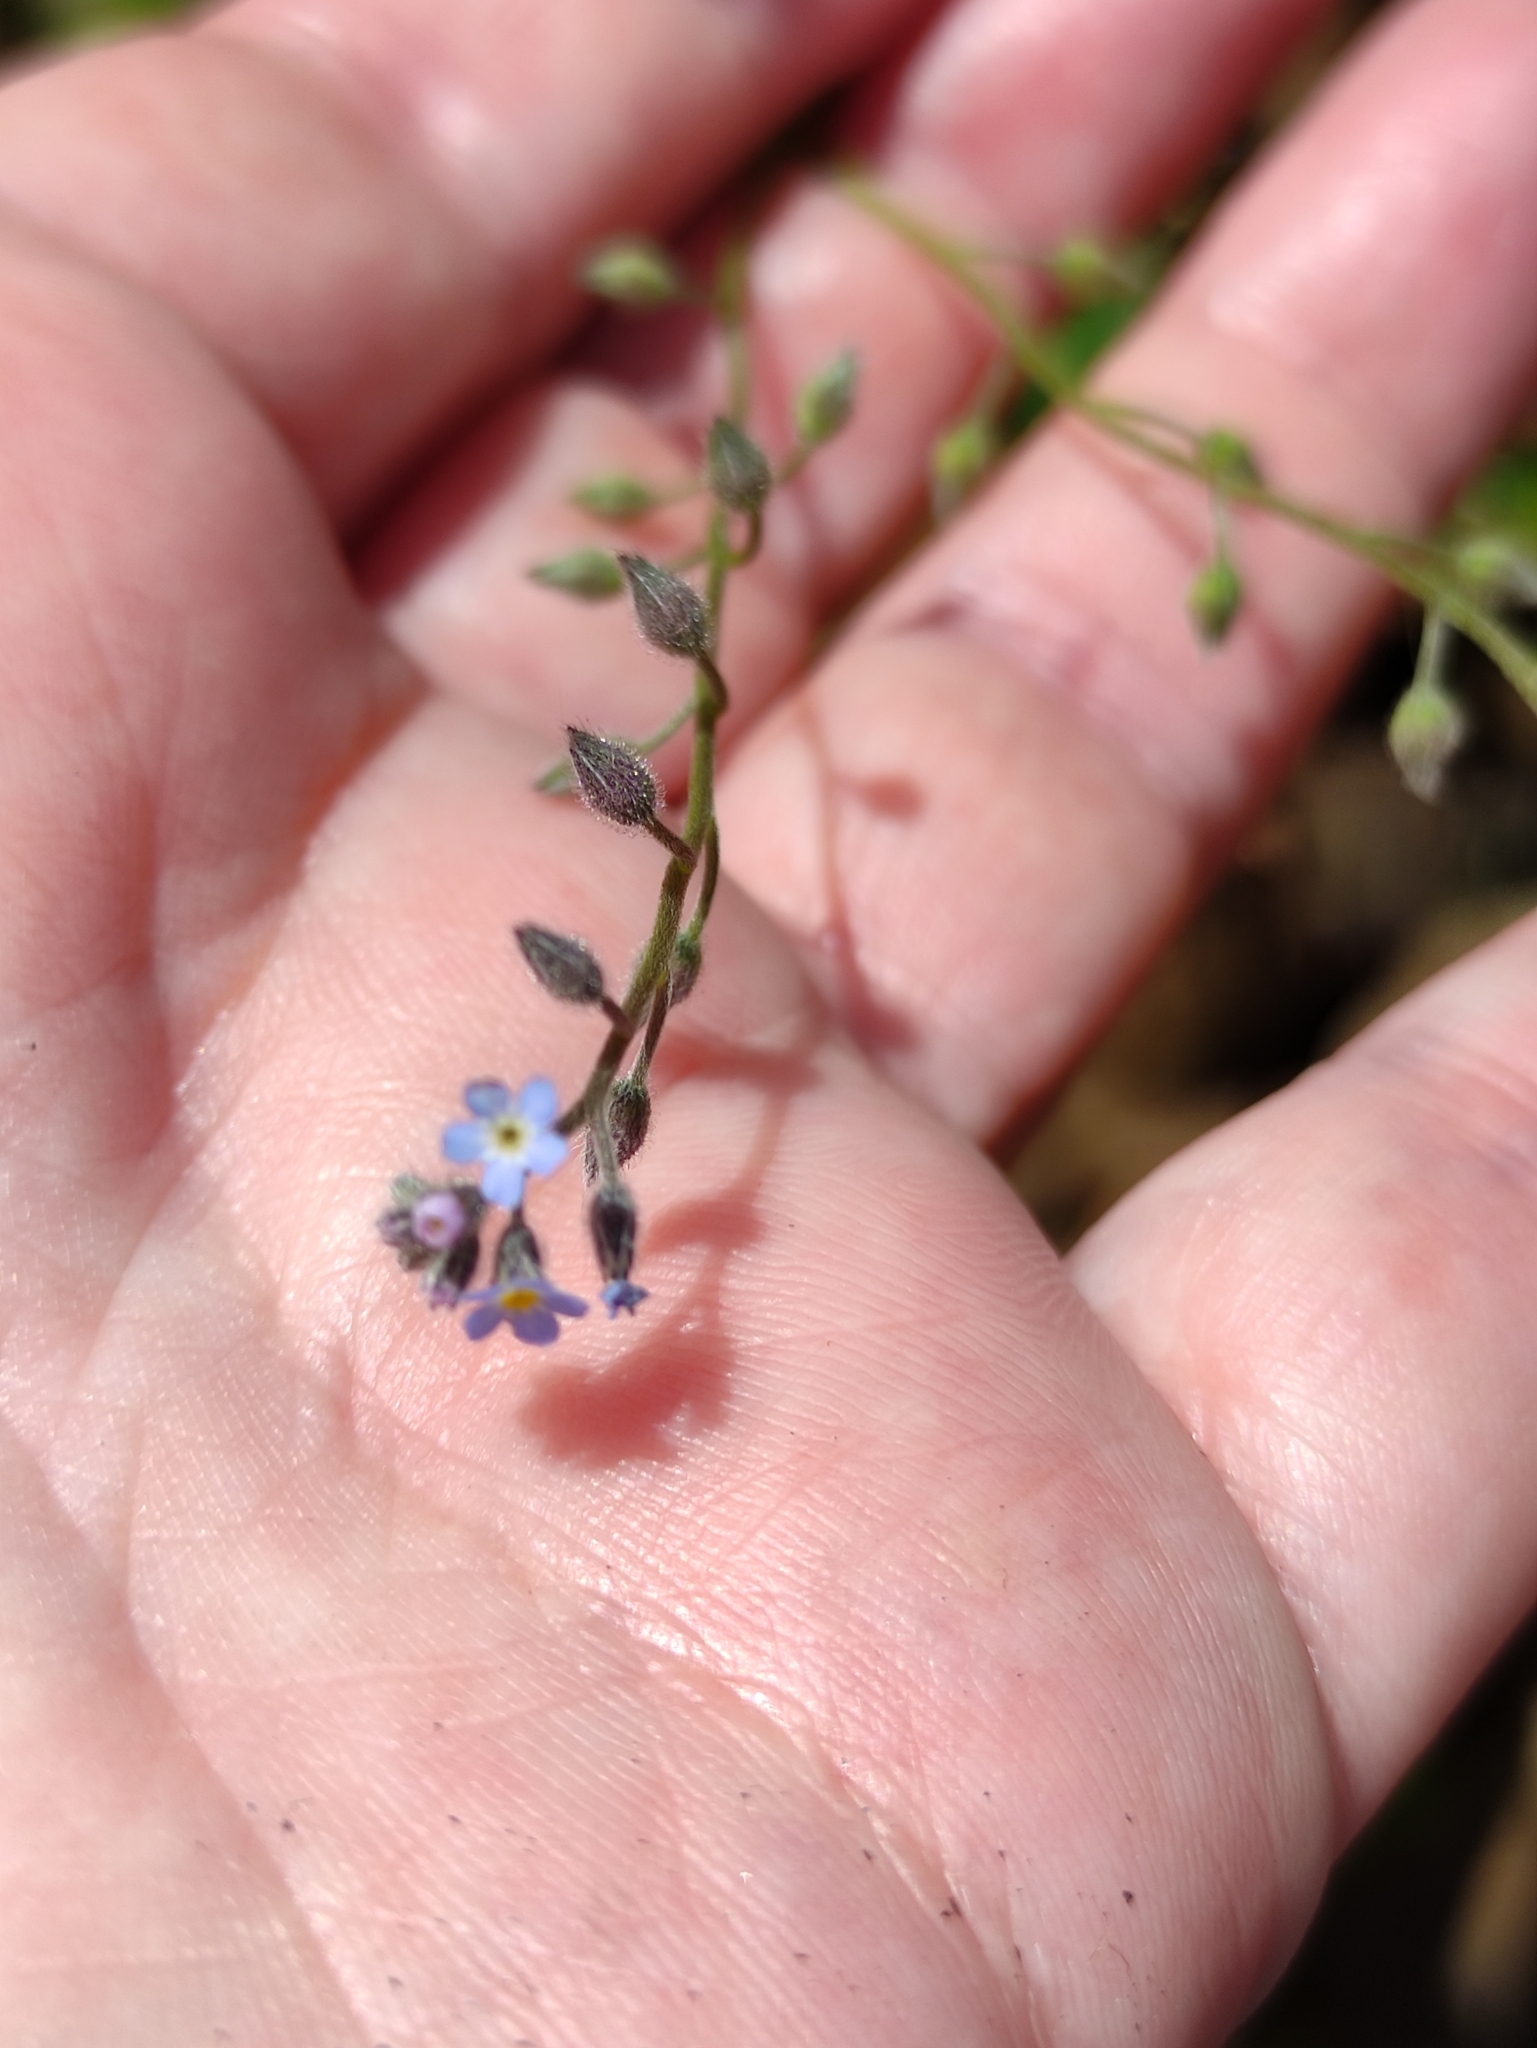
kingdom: Plantae
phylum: Tracheophyta
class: Magnoliopsida
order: Boraginales
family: Boraginaceae
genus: Myosotis
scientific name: Myosotis arvensis
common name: Field forget-me-not
